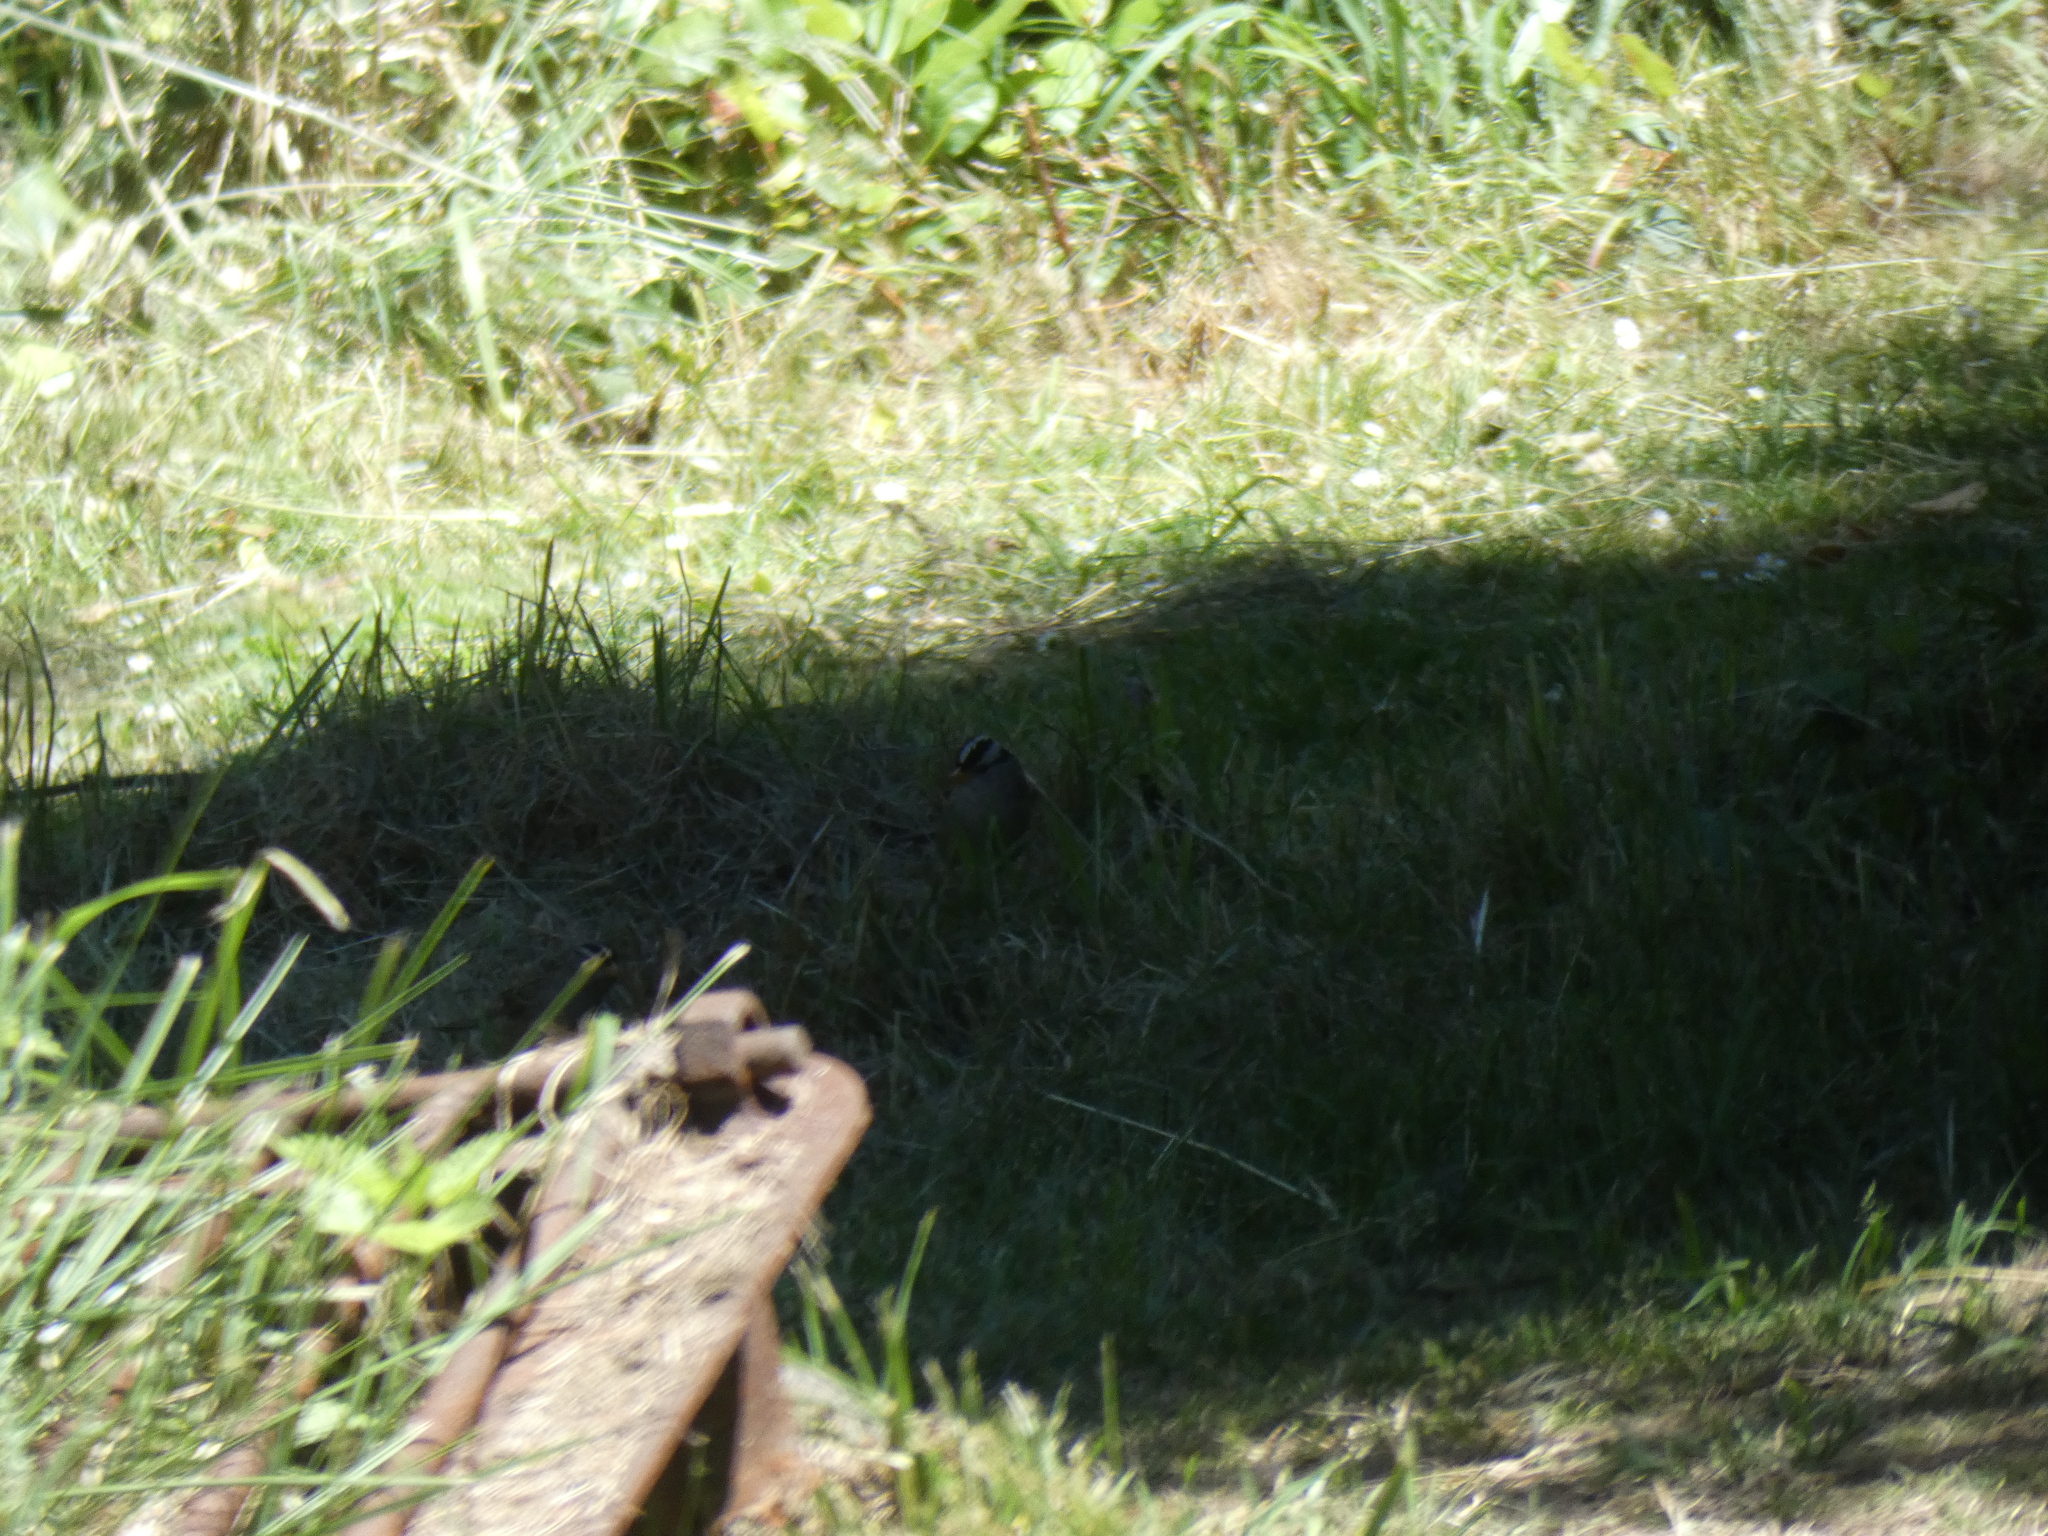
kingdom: Animalia
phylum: Chordata
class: Aves
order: Passeriformes
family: Passerellidae
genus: Zonotrichia
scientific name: Zonotrichia leucophrys
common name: White-crowned sparrow
